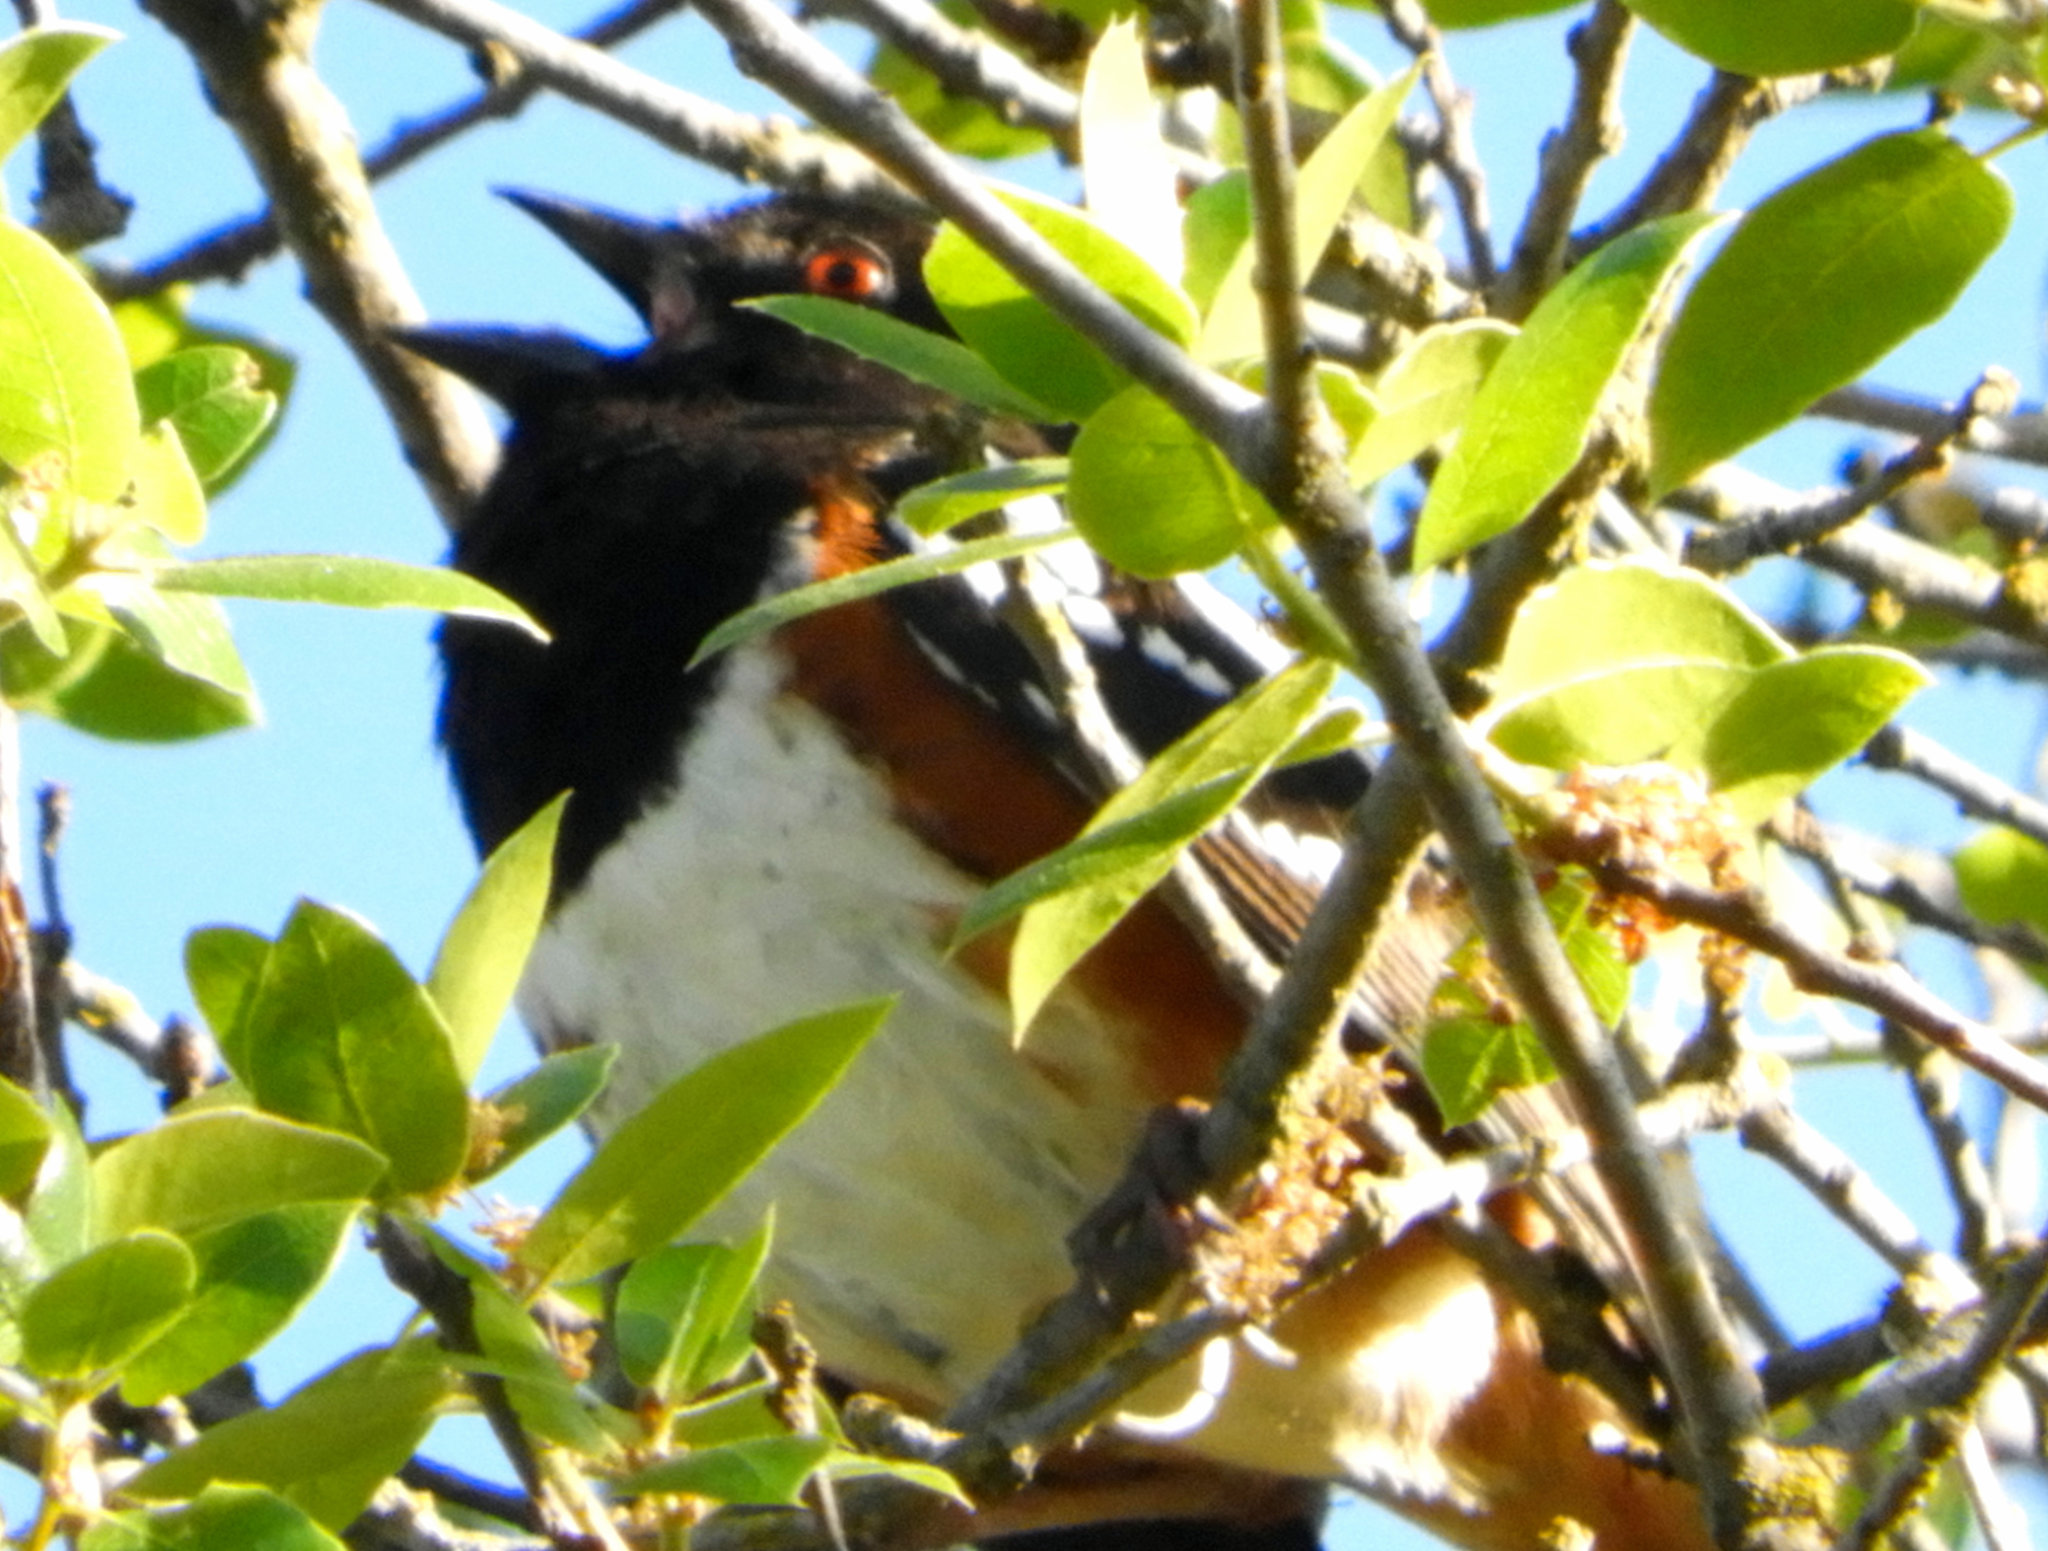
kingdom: Animalia
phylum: Chordata
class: Aves
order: Passeriformes
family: Passerellidae
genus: Pipilo
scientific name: Pipilo maculatus
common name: Spotted towhee
